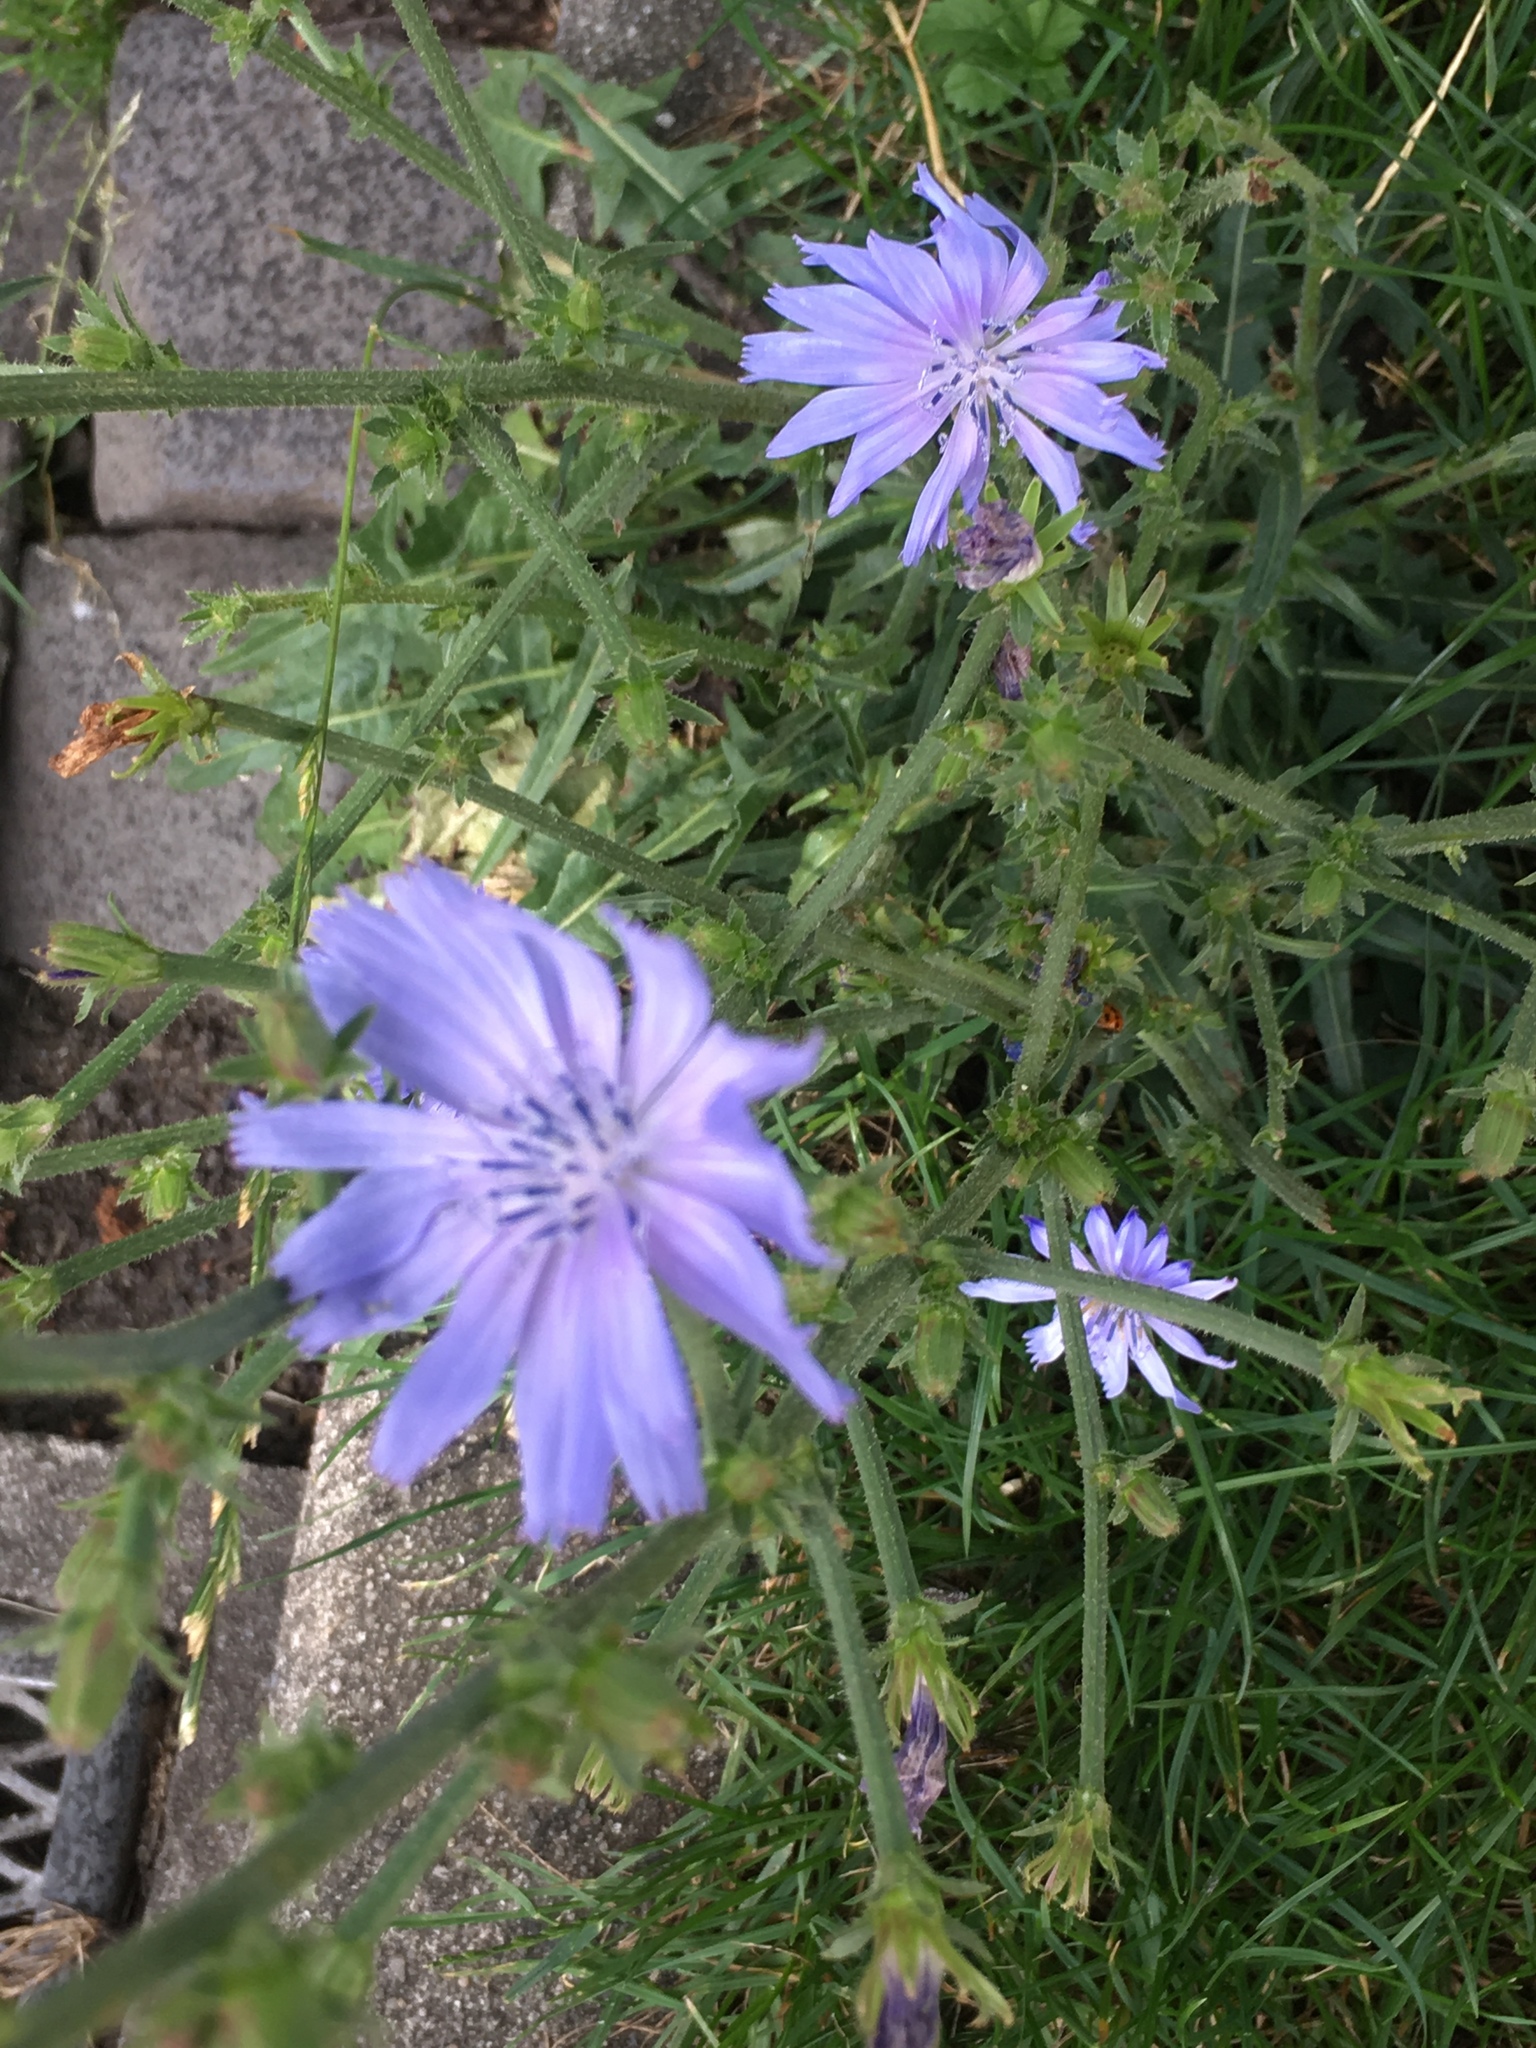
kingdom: Plantae
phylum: Tracheophyta
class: Magnoliopsida
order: Asterales
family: Asteraceae
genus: Cichorium
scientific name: Cichorium intybus
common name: Chicory
